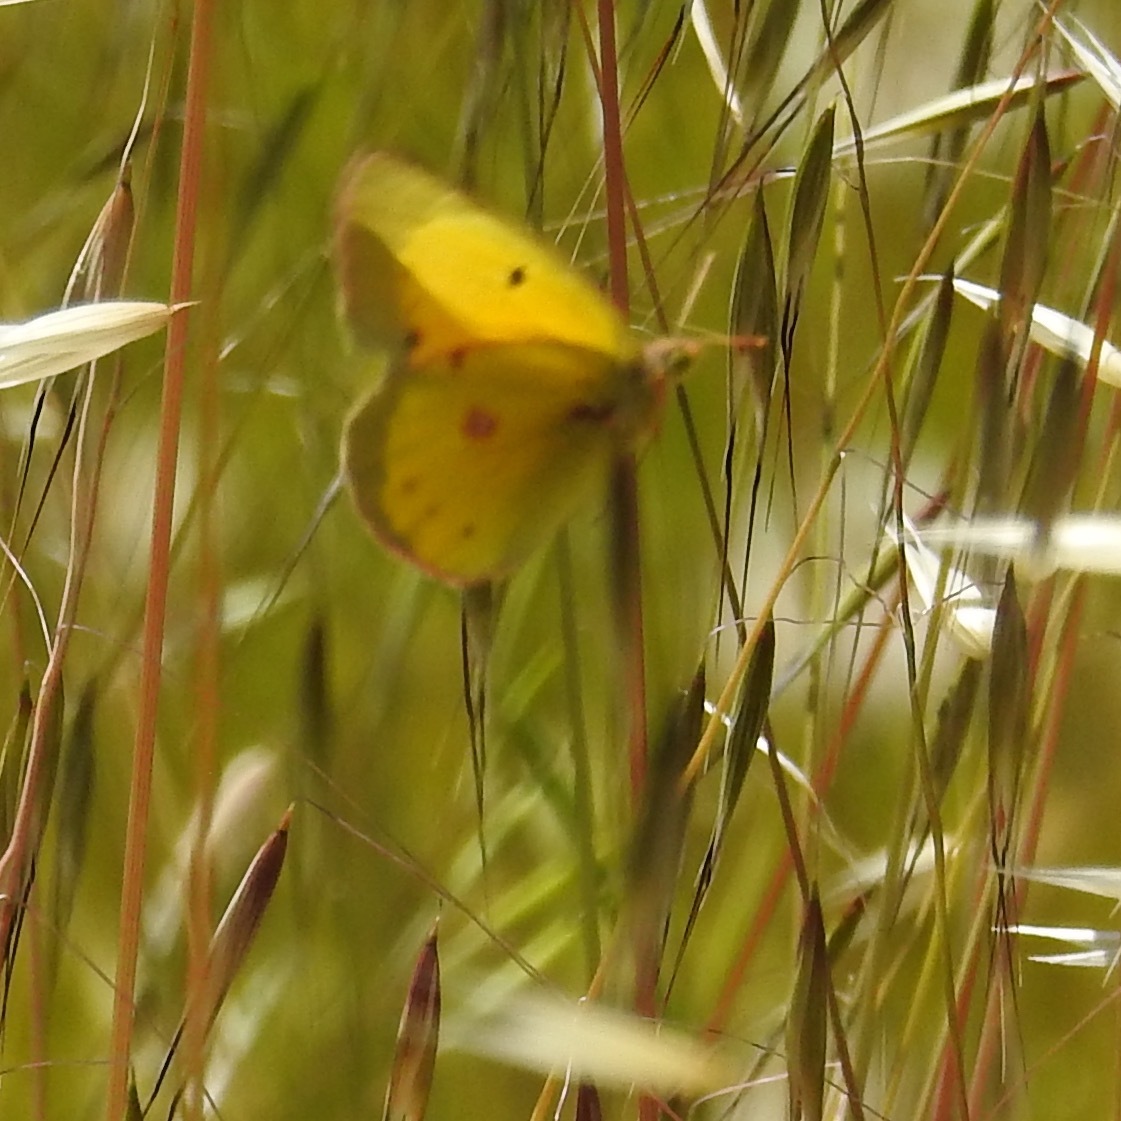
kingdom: Animalia
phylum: Arthropoda
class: Insecta
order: Lepidoptera
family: Pieridae
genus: Colias
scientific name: Colias eurytheme
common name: Alfalfa butterfly
